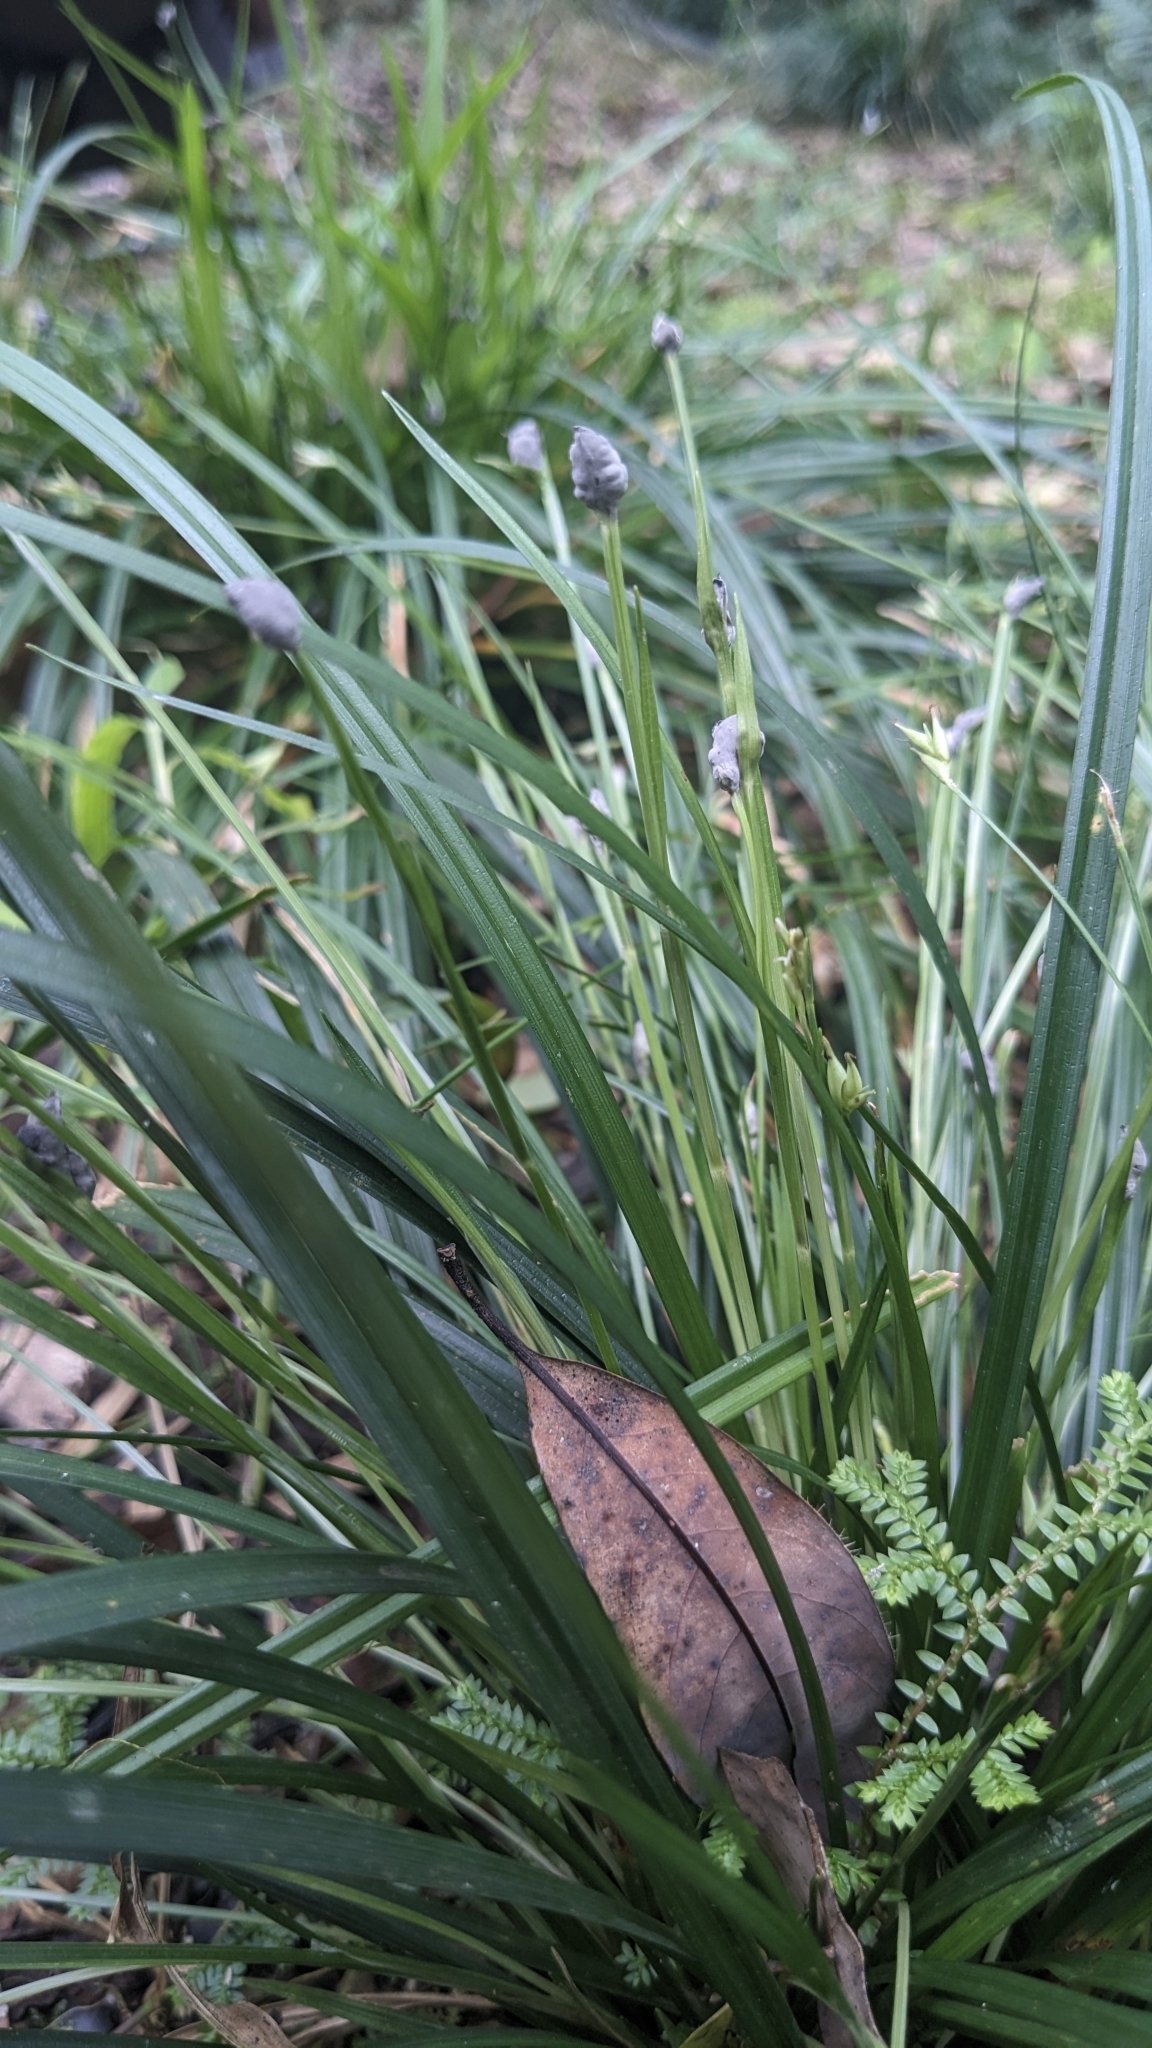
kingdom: Plantae
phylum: Tracheophyta
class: Liliopsida
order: Poales
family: Cyperaceae
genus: Carex
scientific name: Carex arisanensis
